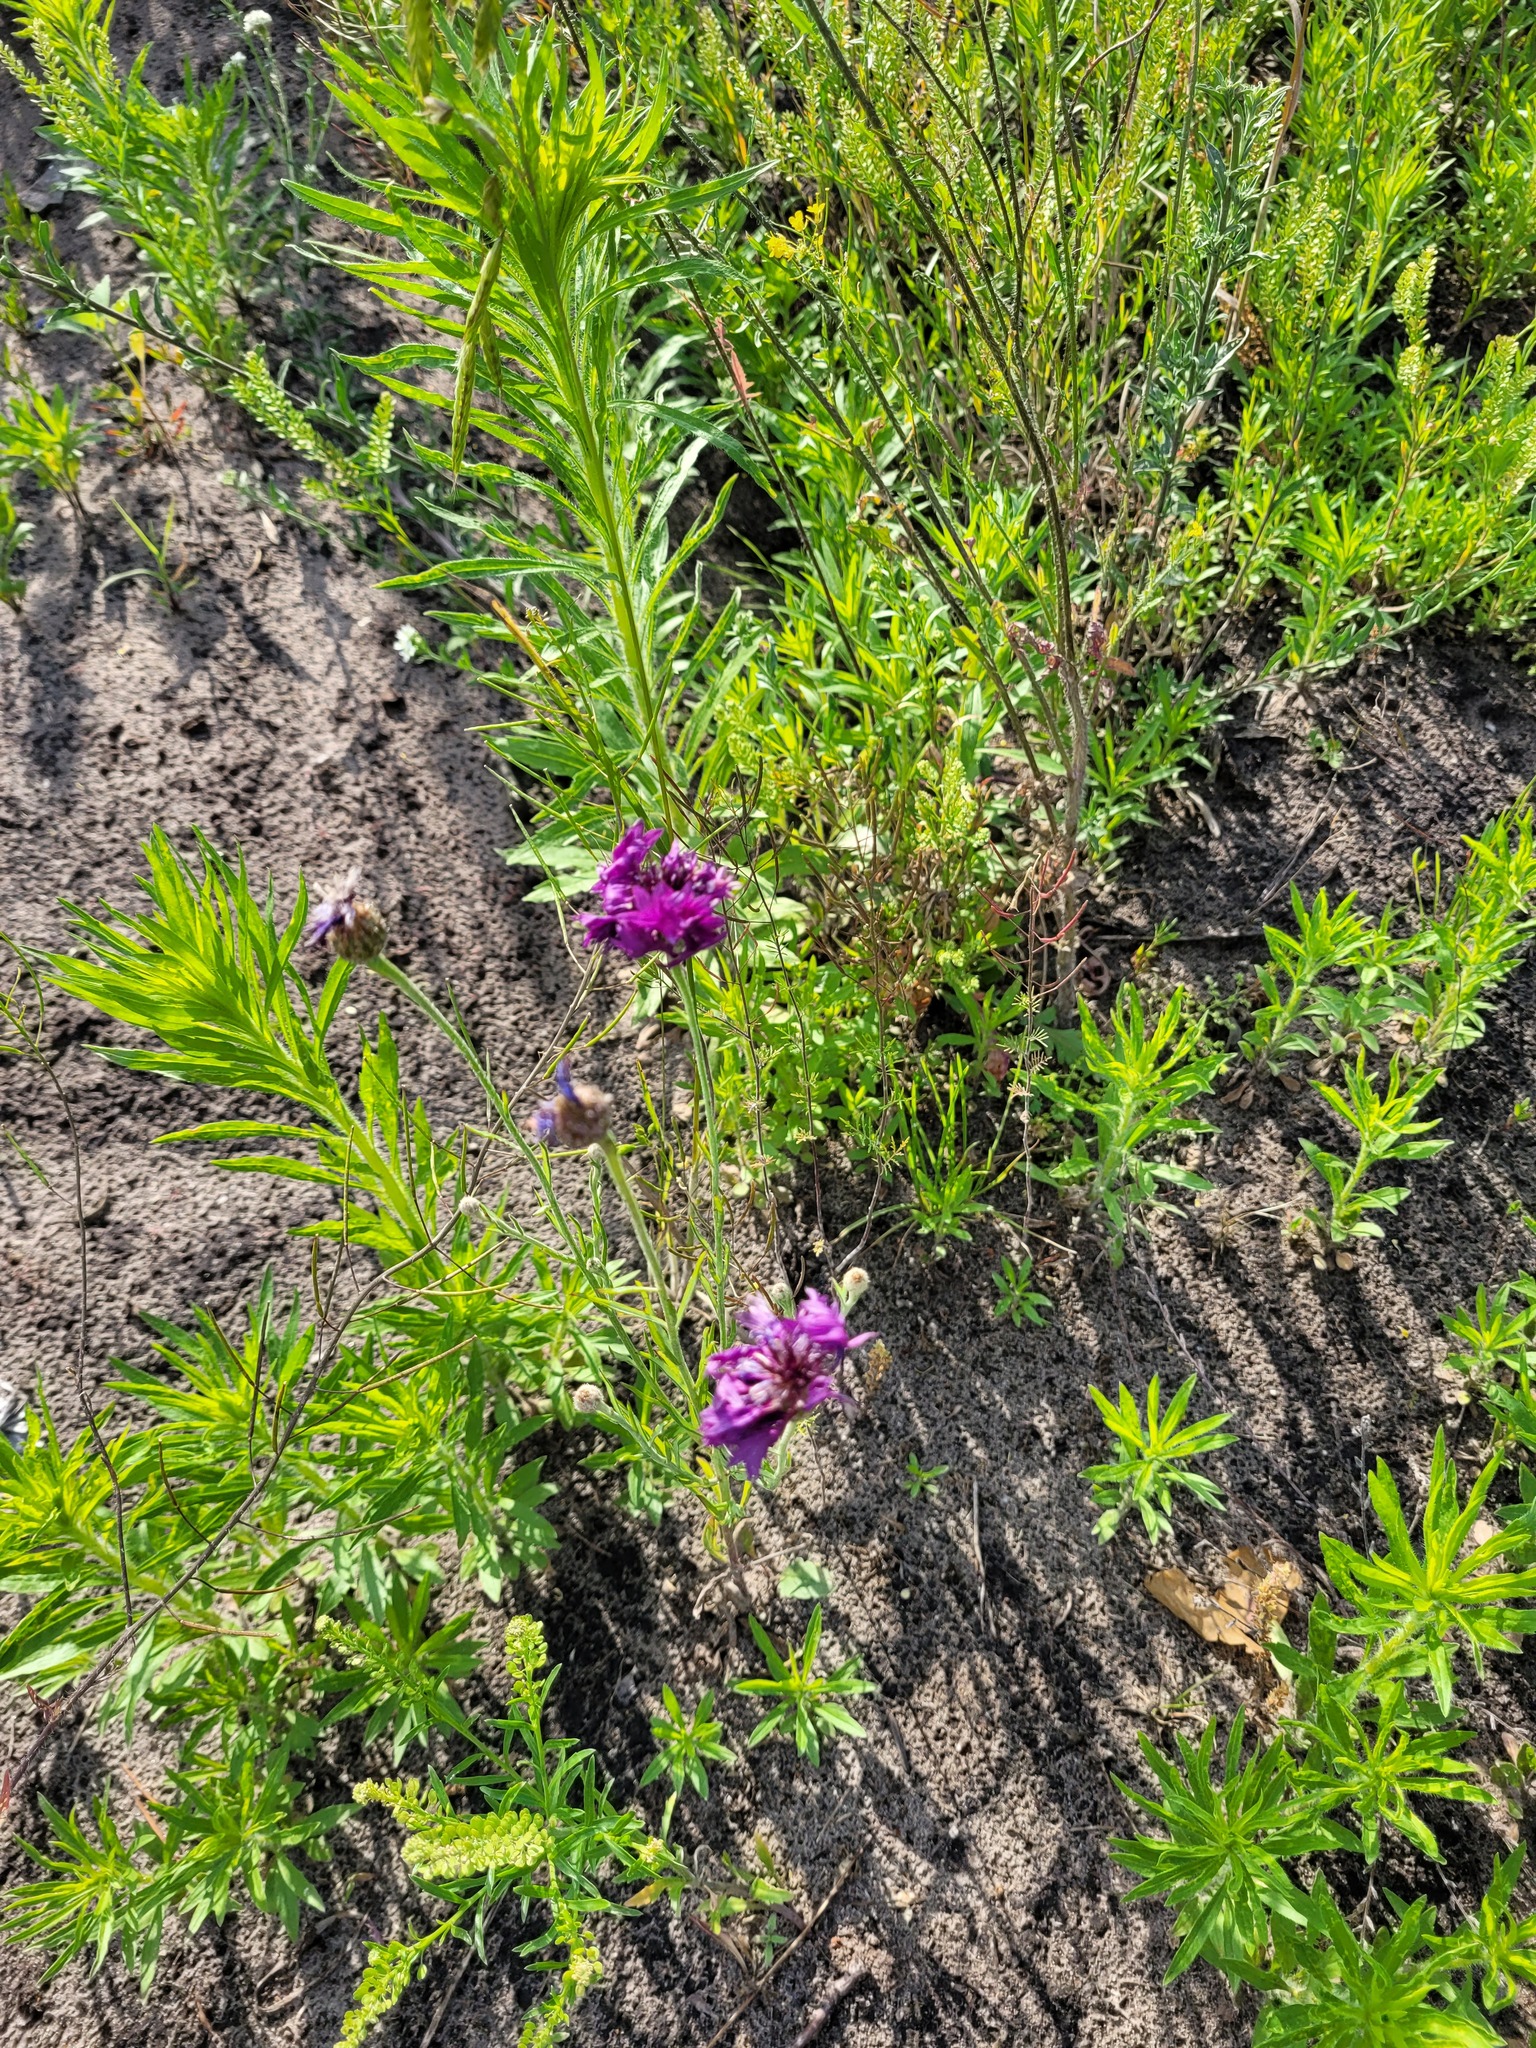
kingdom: Plantae
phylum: Tracheophyta
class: Magnoliopsida
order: Asterales
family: Asteraceae
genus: Centaurea
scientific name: Centaurea cyanus
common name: Cornflower
